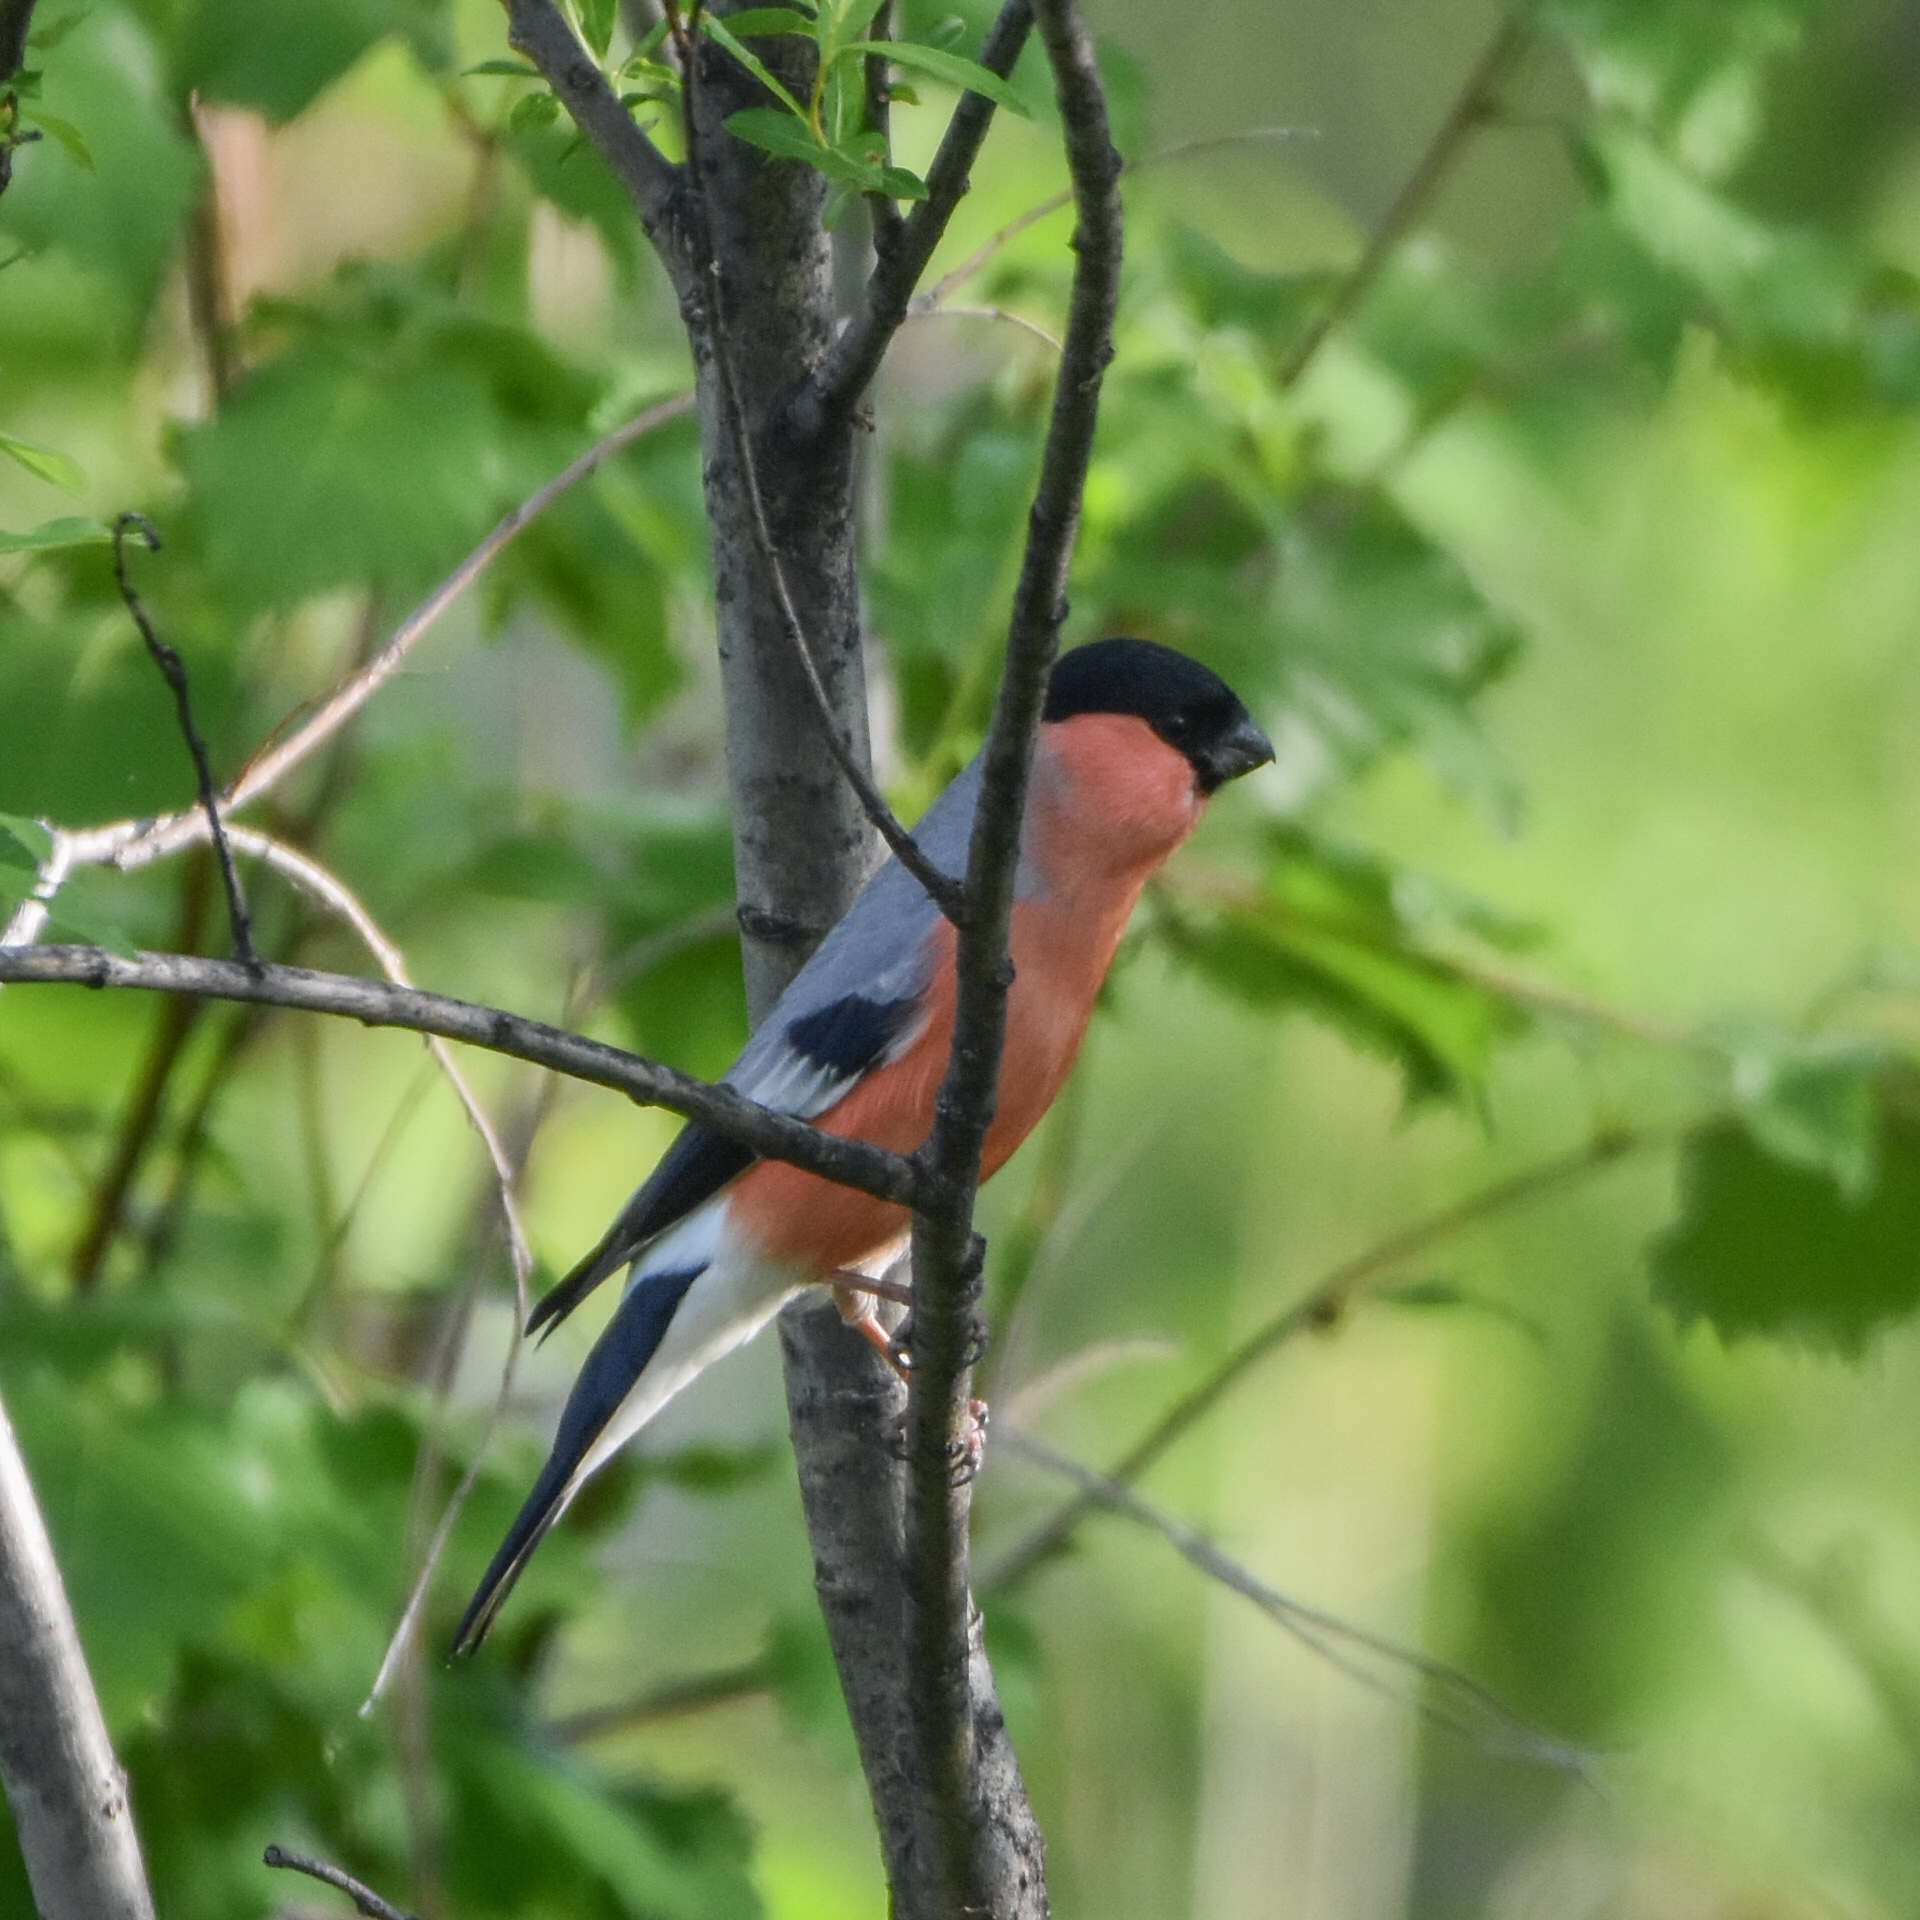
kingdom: Animalia
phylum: Chordata
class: Aves
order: Passeriformes
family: Fringillidae
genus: Pyrrhula
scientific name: Pyrrhula pyrrhula
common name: Eurasian bullfinch
